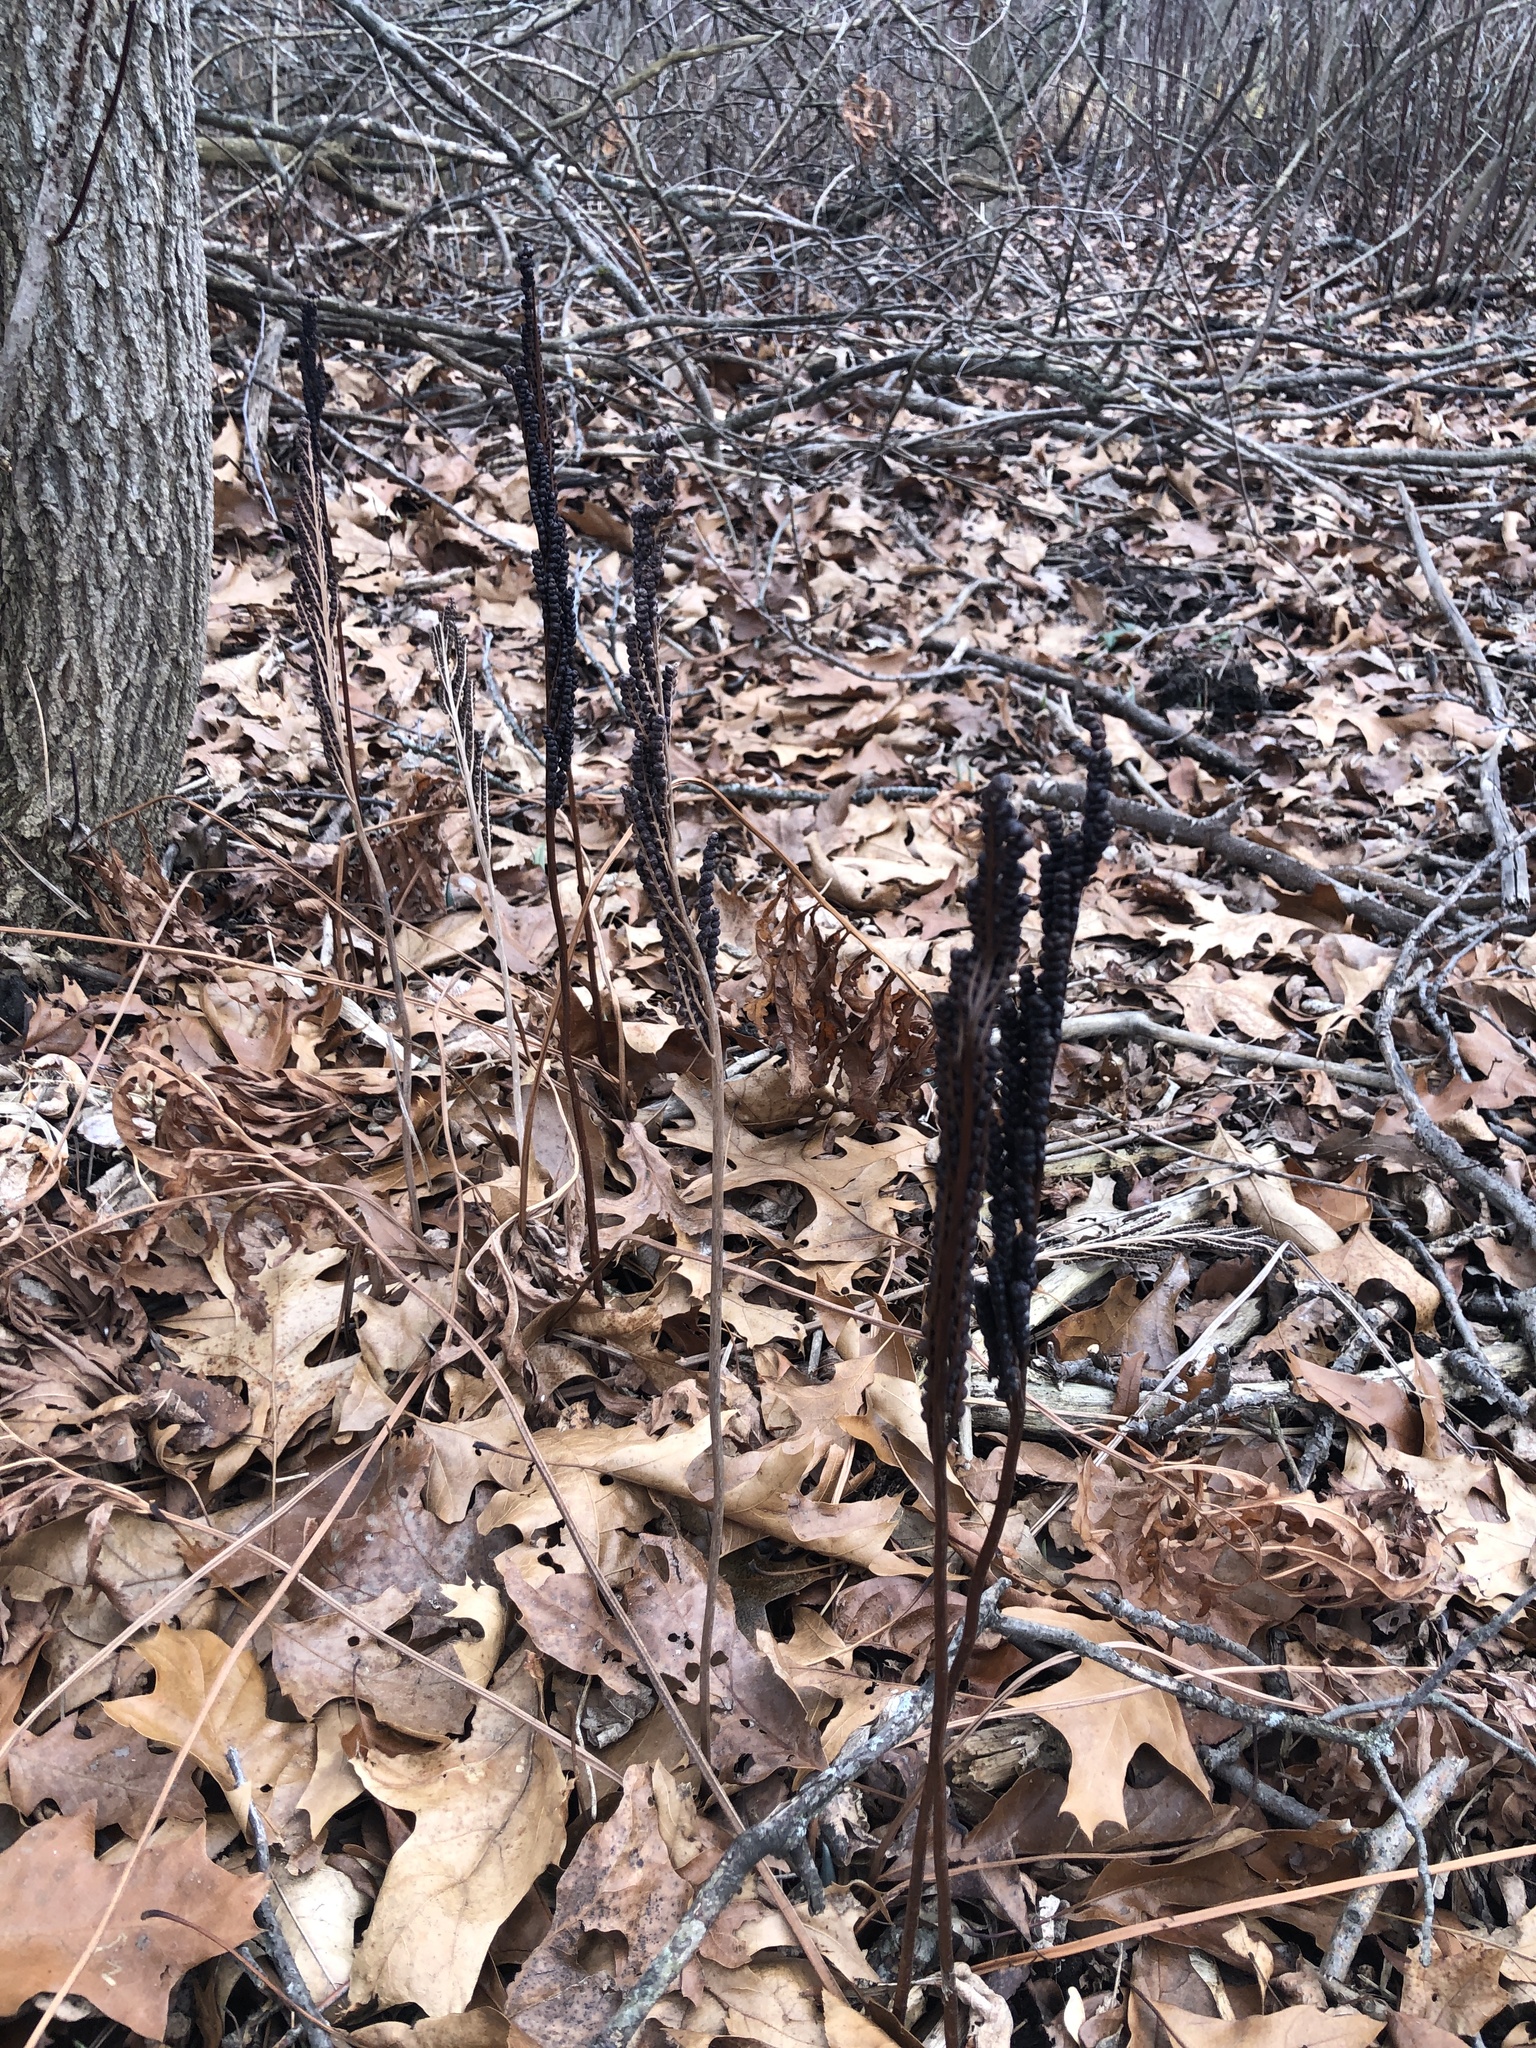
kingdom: Plantae
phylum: Tracheophyta
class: Polypodiopsida
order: Polypodiales
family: Onocleaceae
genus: Onoclea
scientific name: Onoclea sensibilis
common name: Sensitive fern
